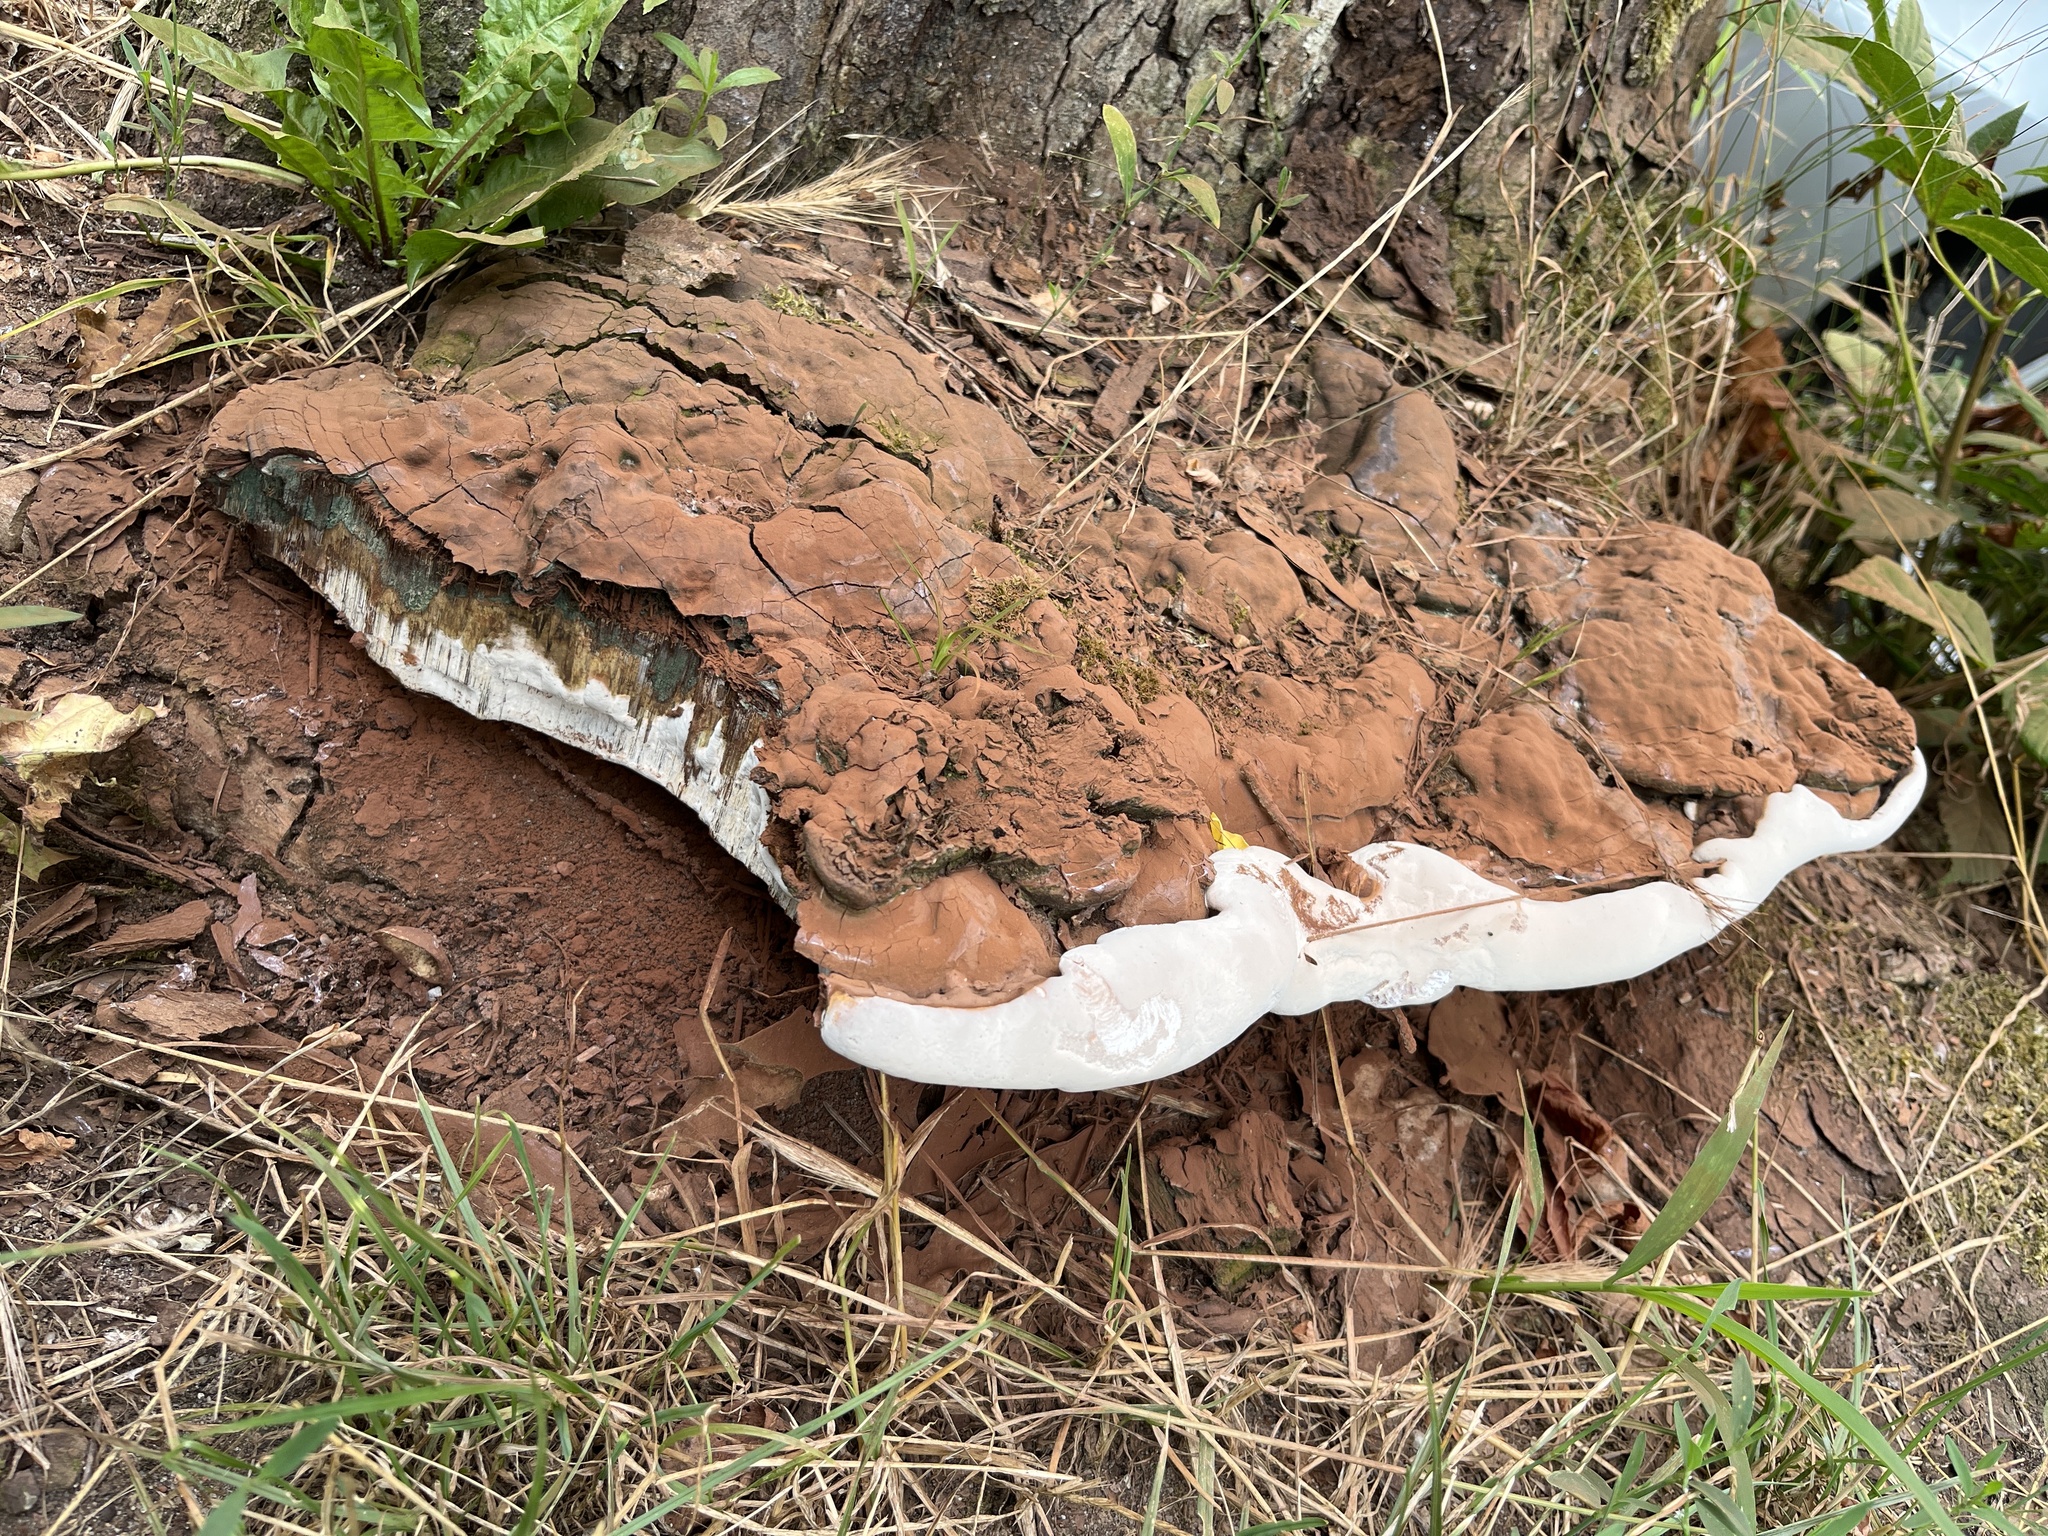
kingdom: Fungi
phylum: Basidiomycota
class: Agaricomycetes
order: Polyporales
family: Polyporaceae
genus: Ganoderma
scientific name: Ganoderma adspersum
